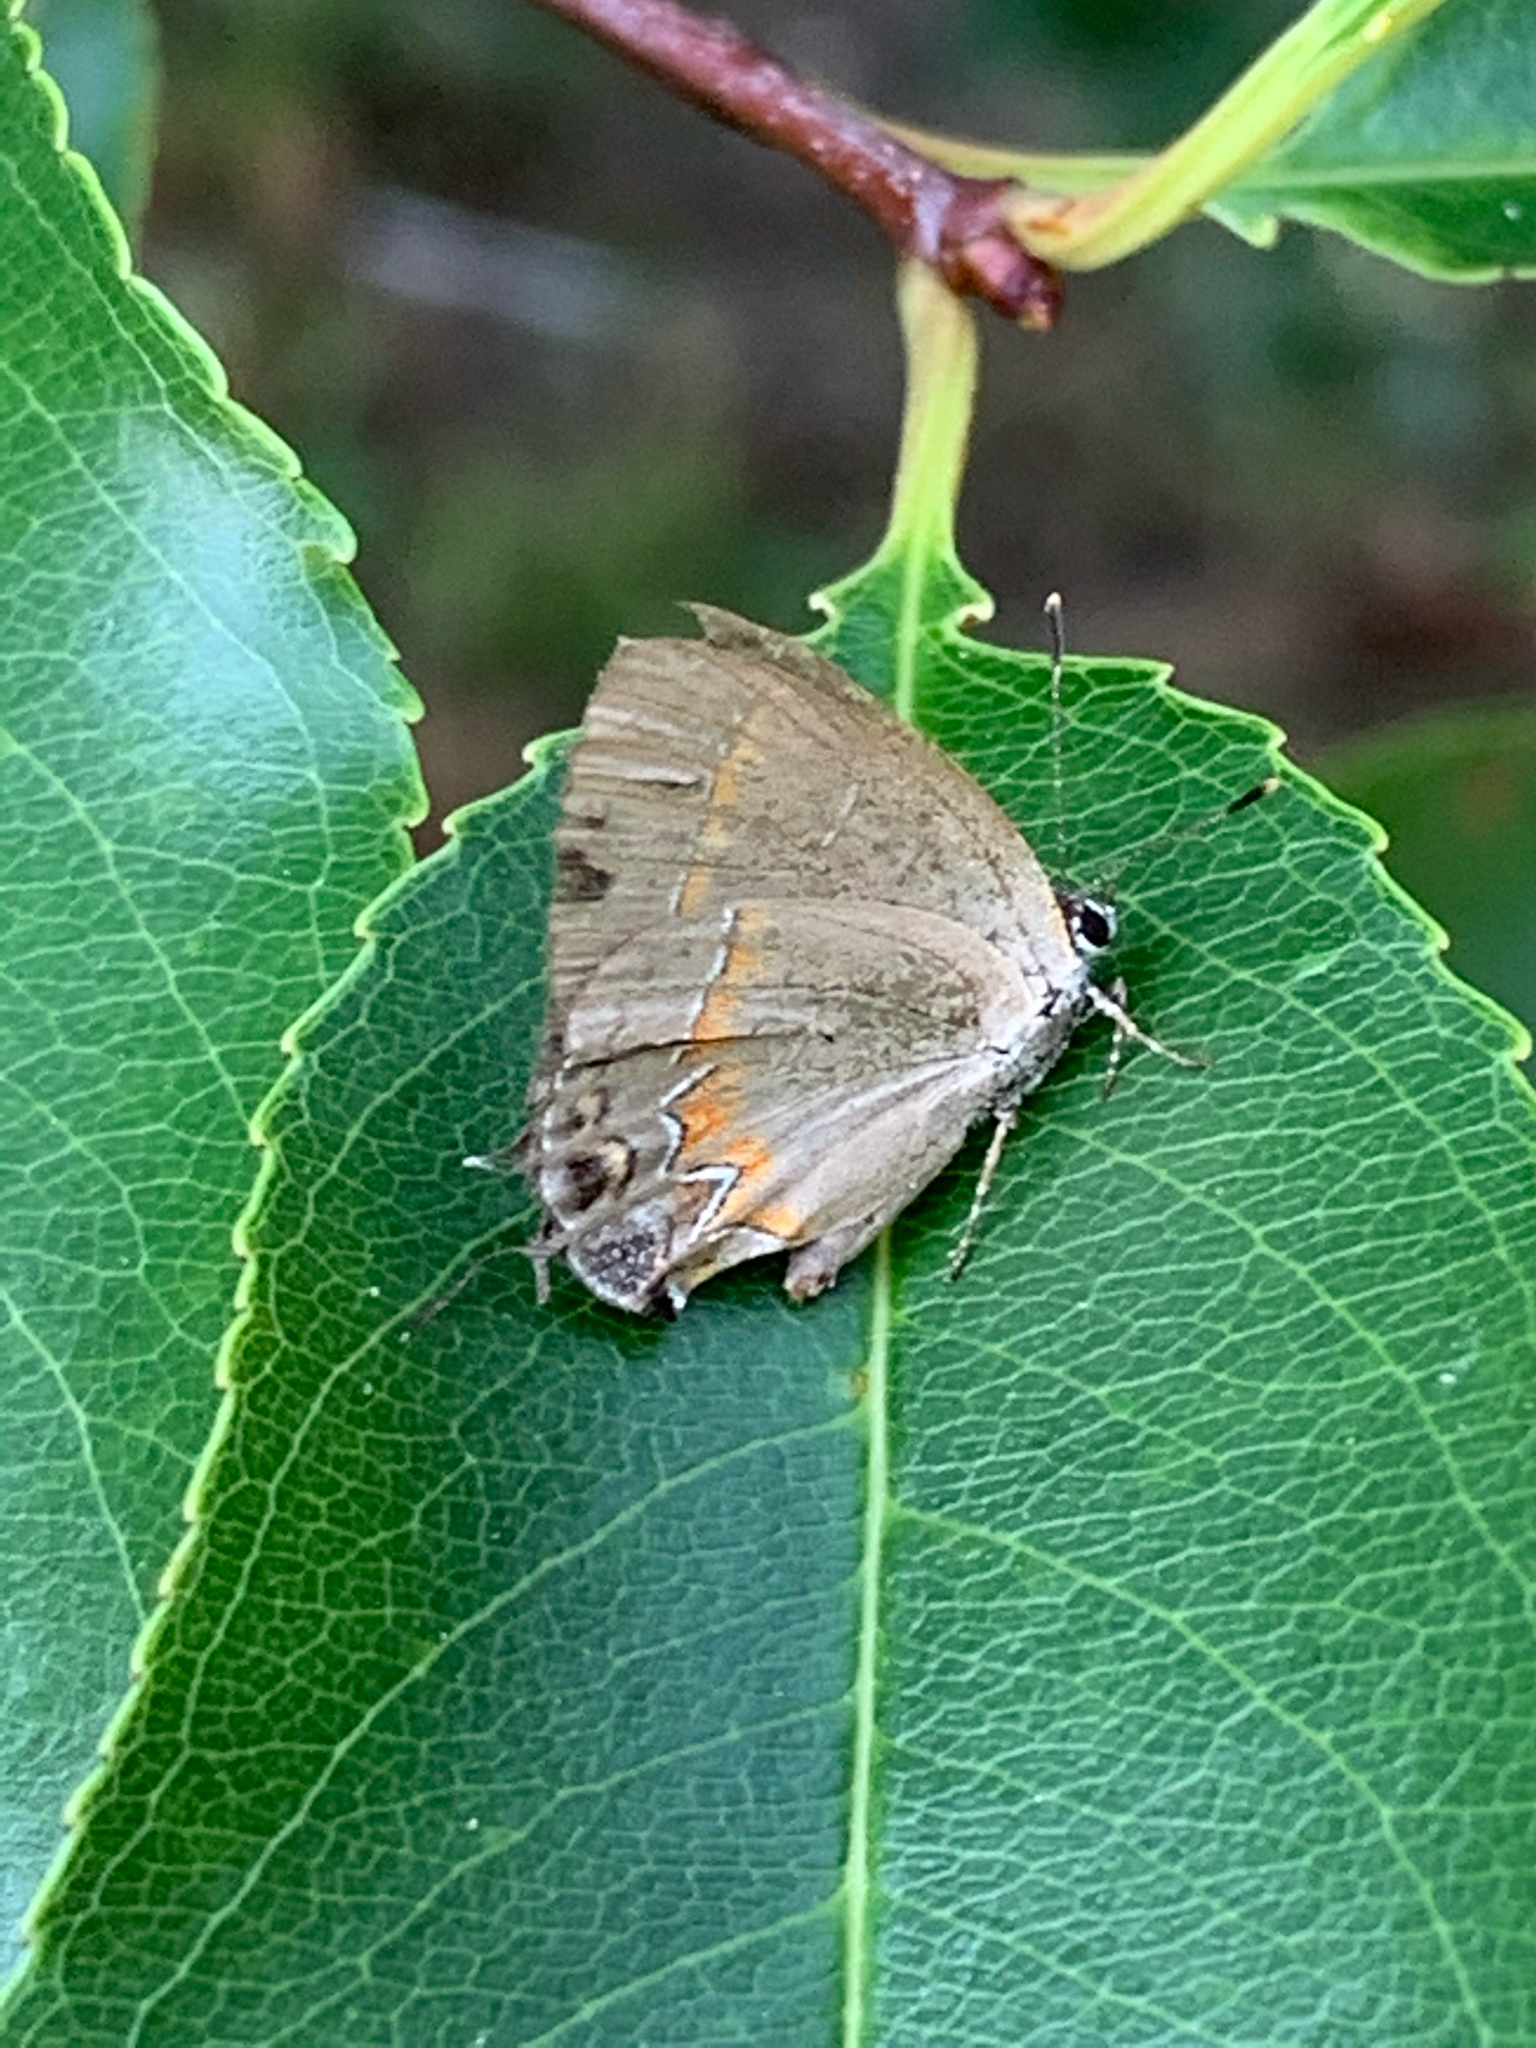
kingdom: Animalia
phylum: Arthropoda
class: Insecta
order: Lepidoptera
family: Lycaenidae
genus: Calycopis
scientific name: Calycopis cecrops
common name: Red-banded hairstreak
